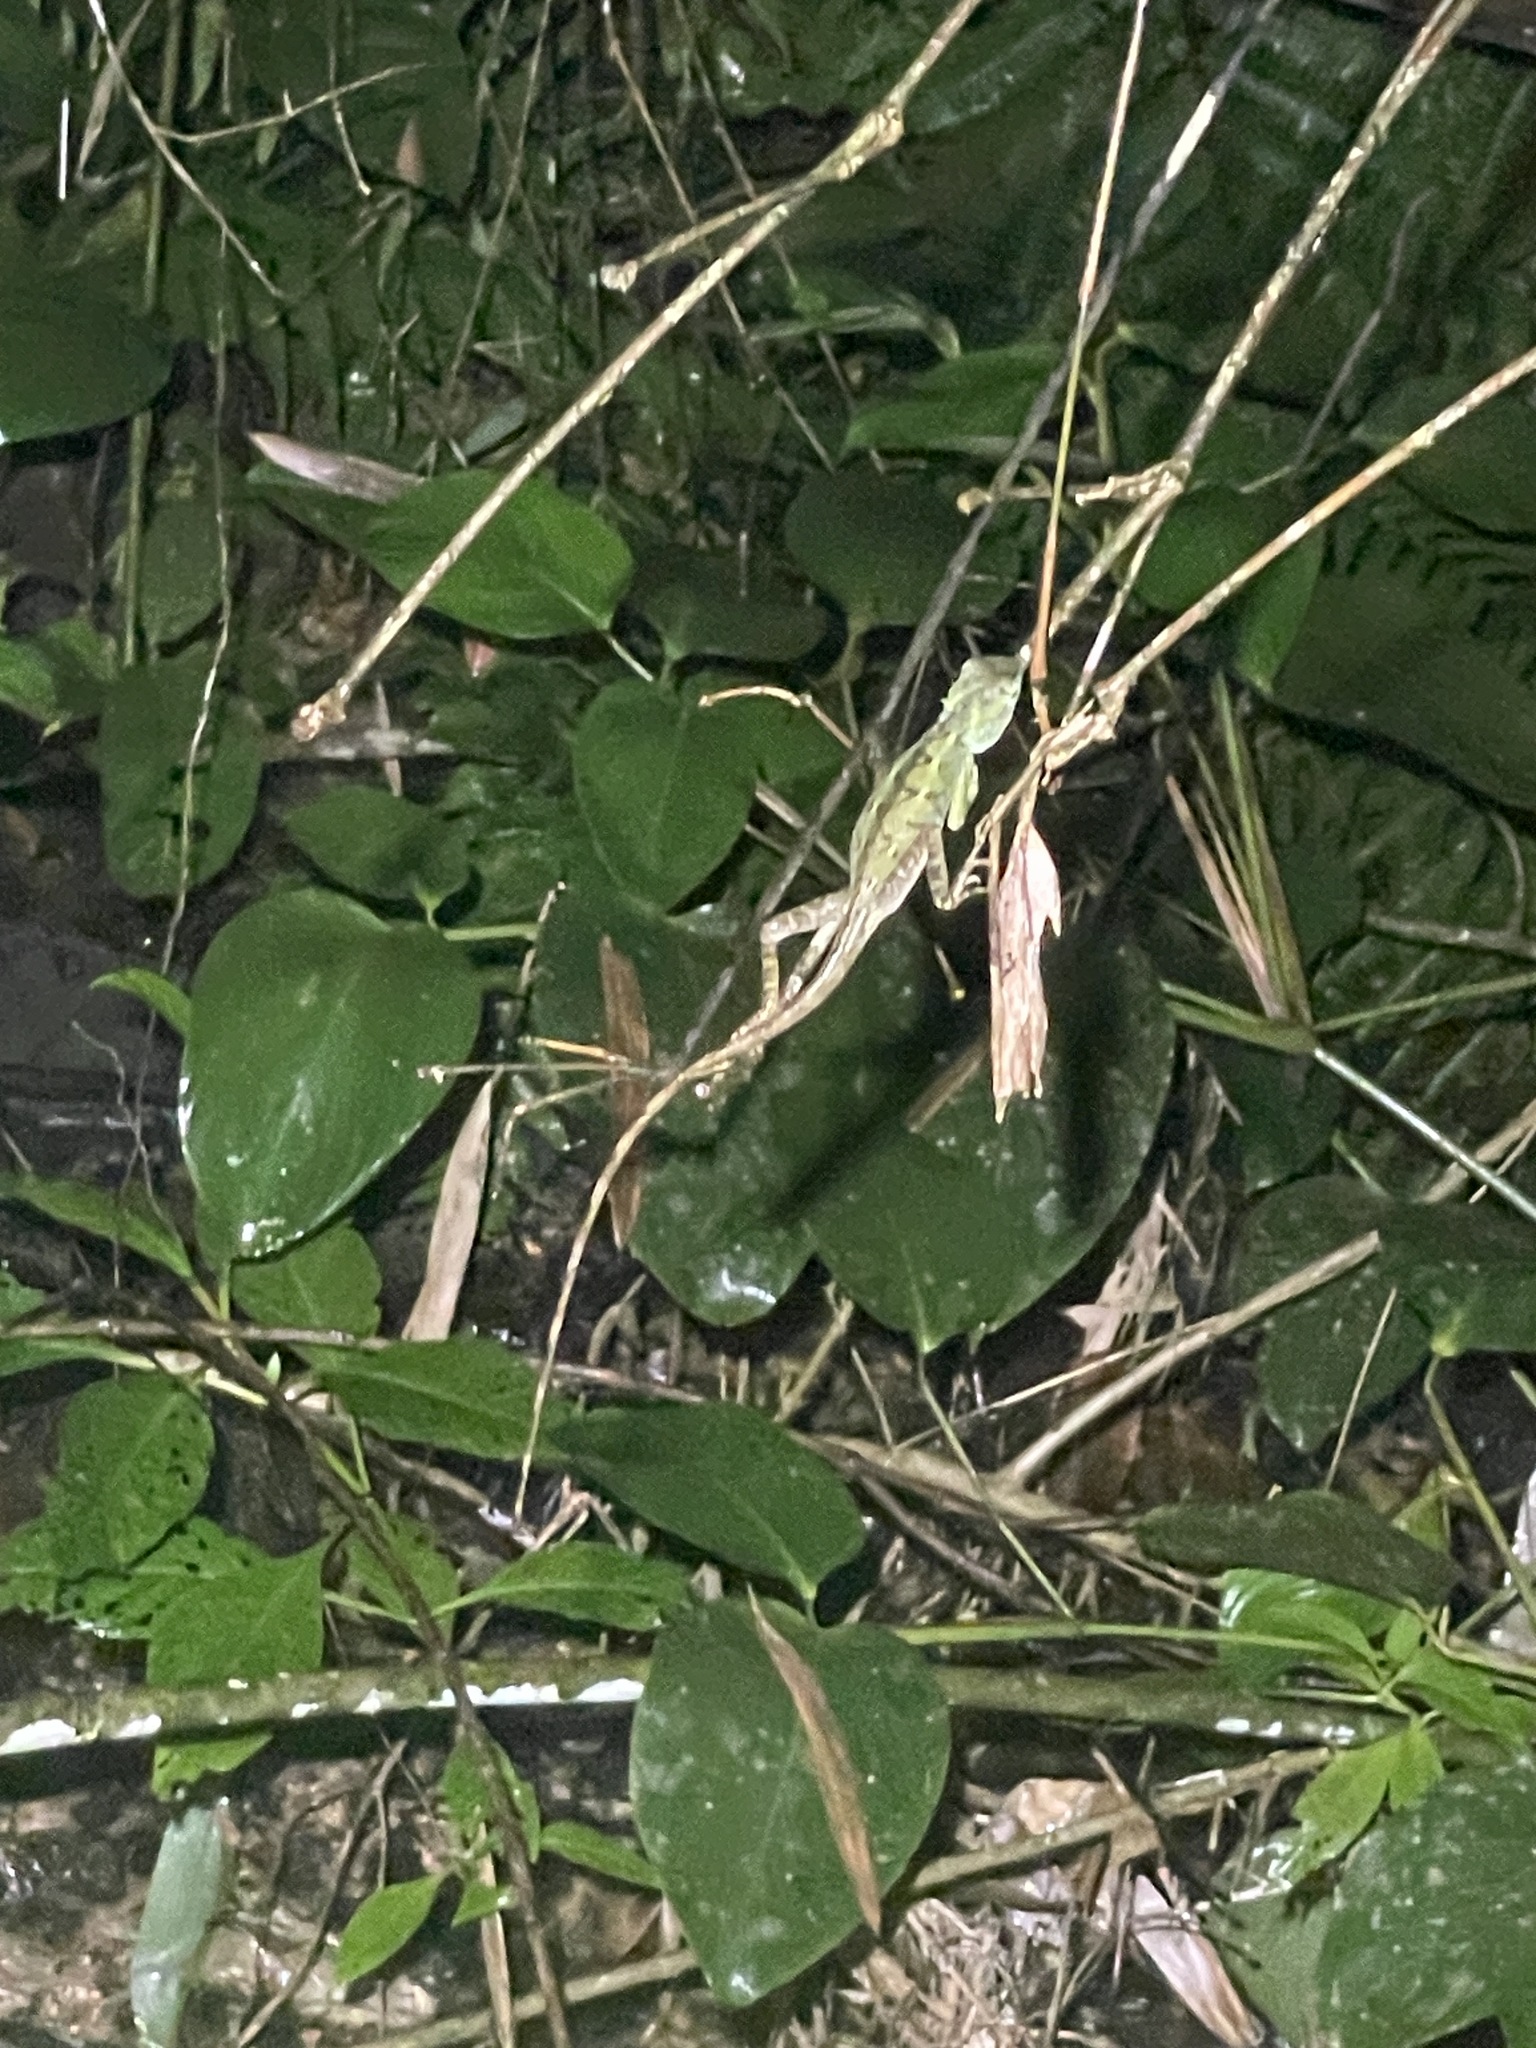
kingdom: Animalia
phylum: Chordata
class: Squamata
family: Agamidae
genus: Calotes
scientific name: Calotes emma
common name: Thailand bloodsucker
